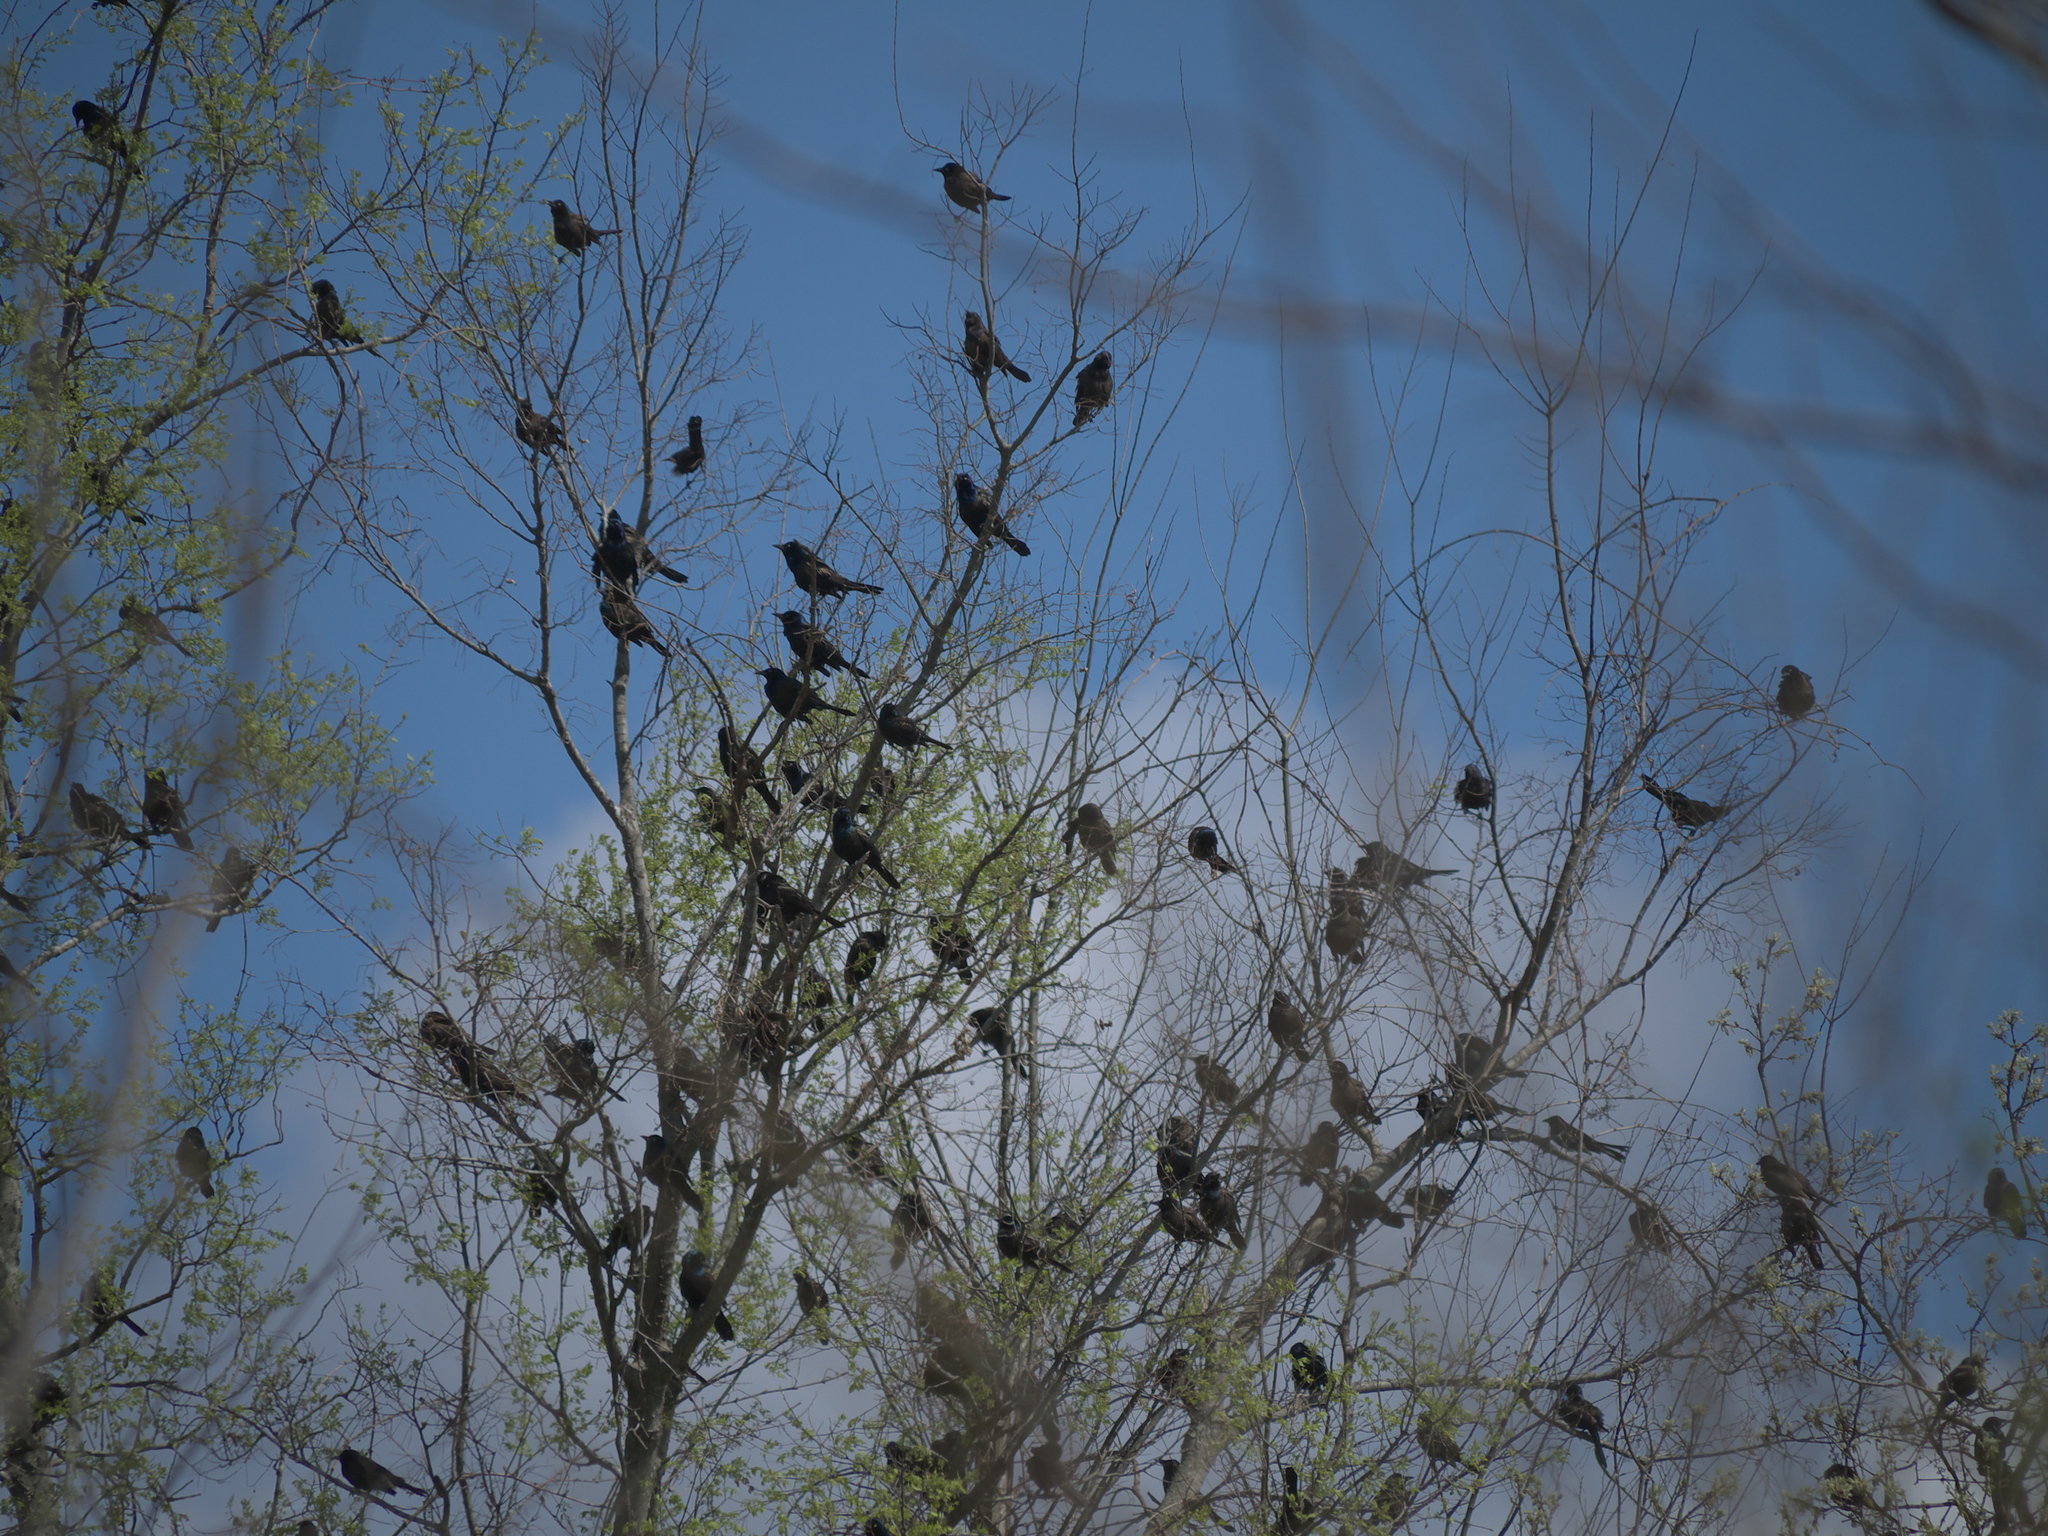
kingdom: Animalia
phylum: Chordata
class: Aves
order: Passeriformes
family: Icteridae
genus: Quiscalus
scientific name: Quiscalus quiscula
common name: Common grackle
